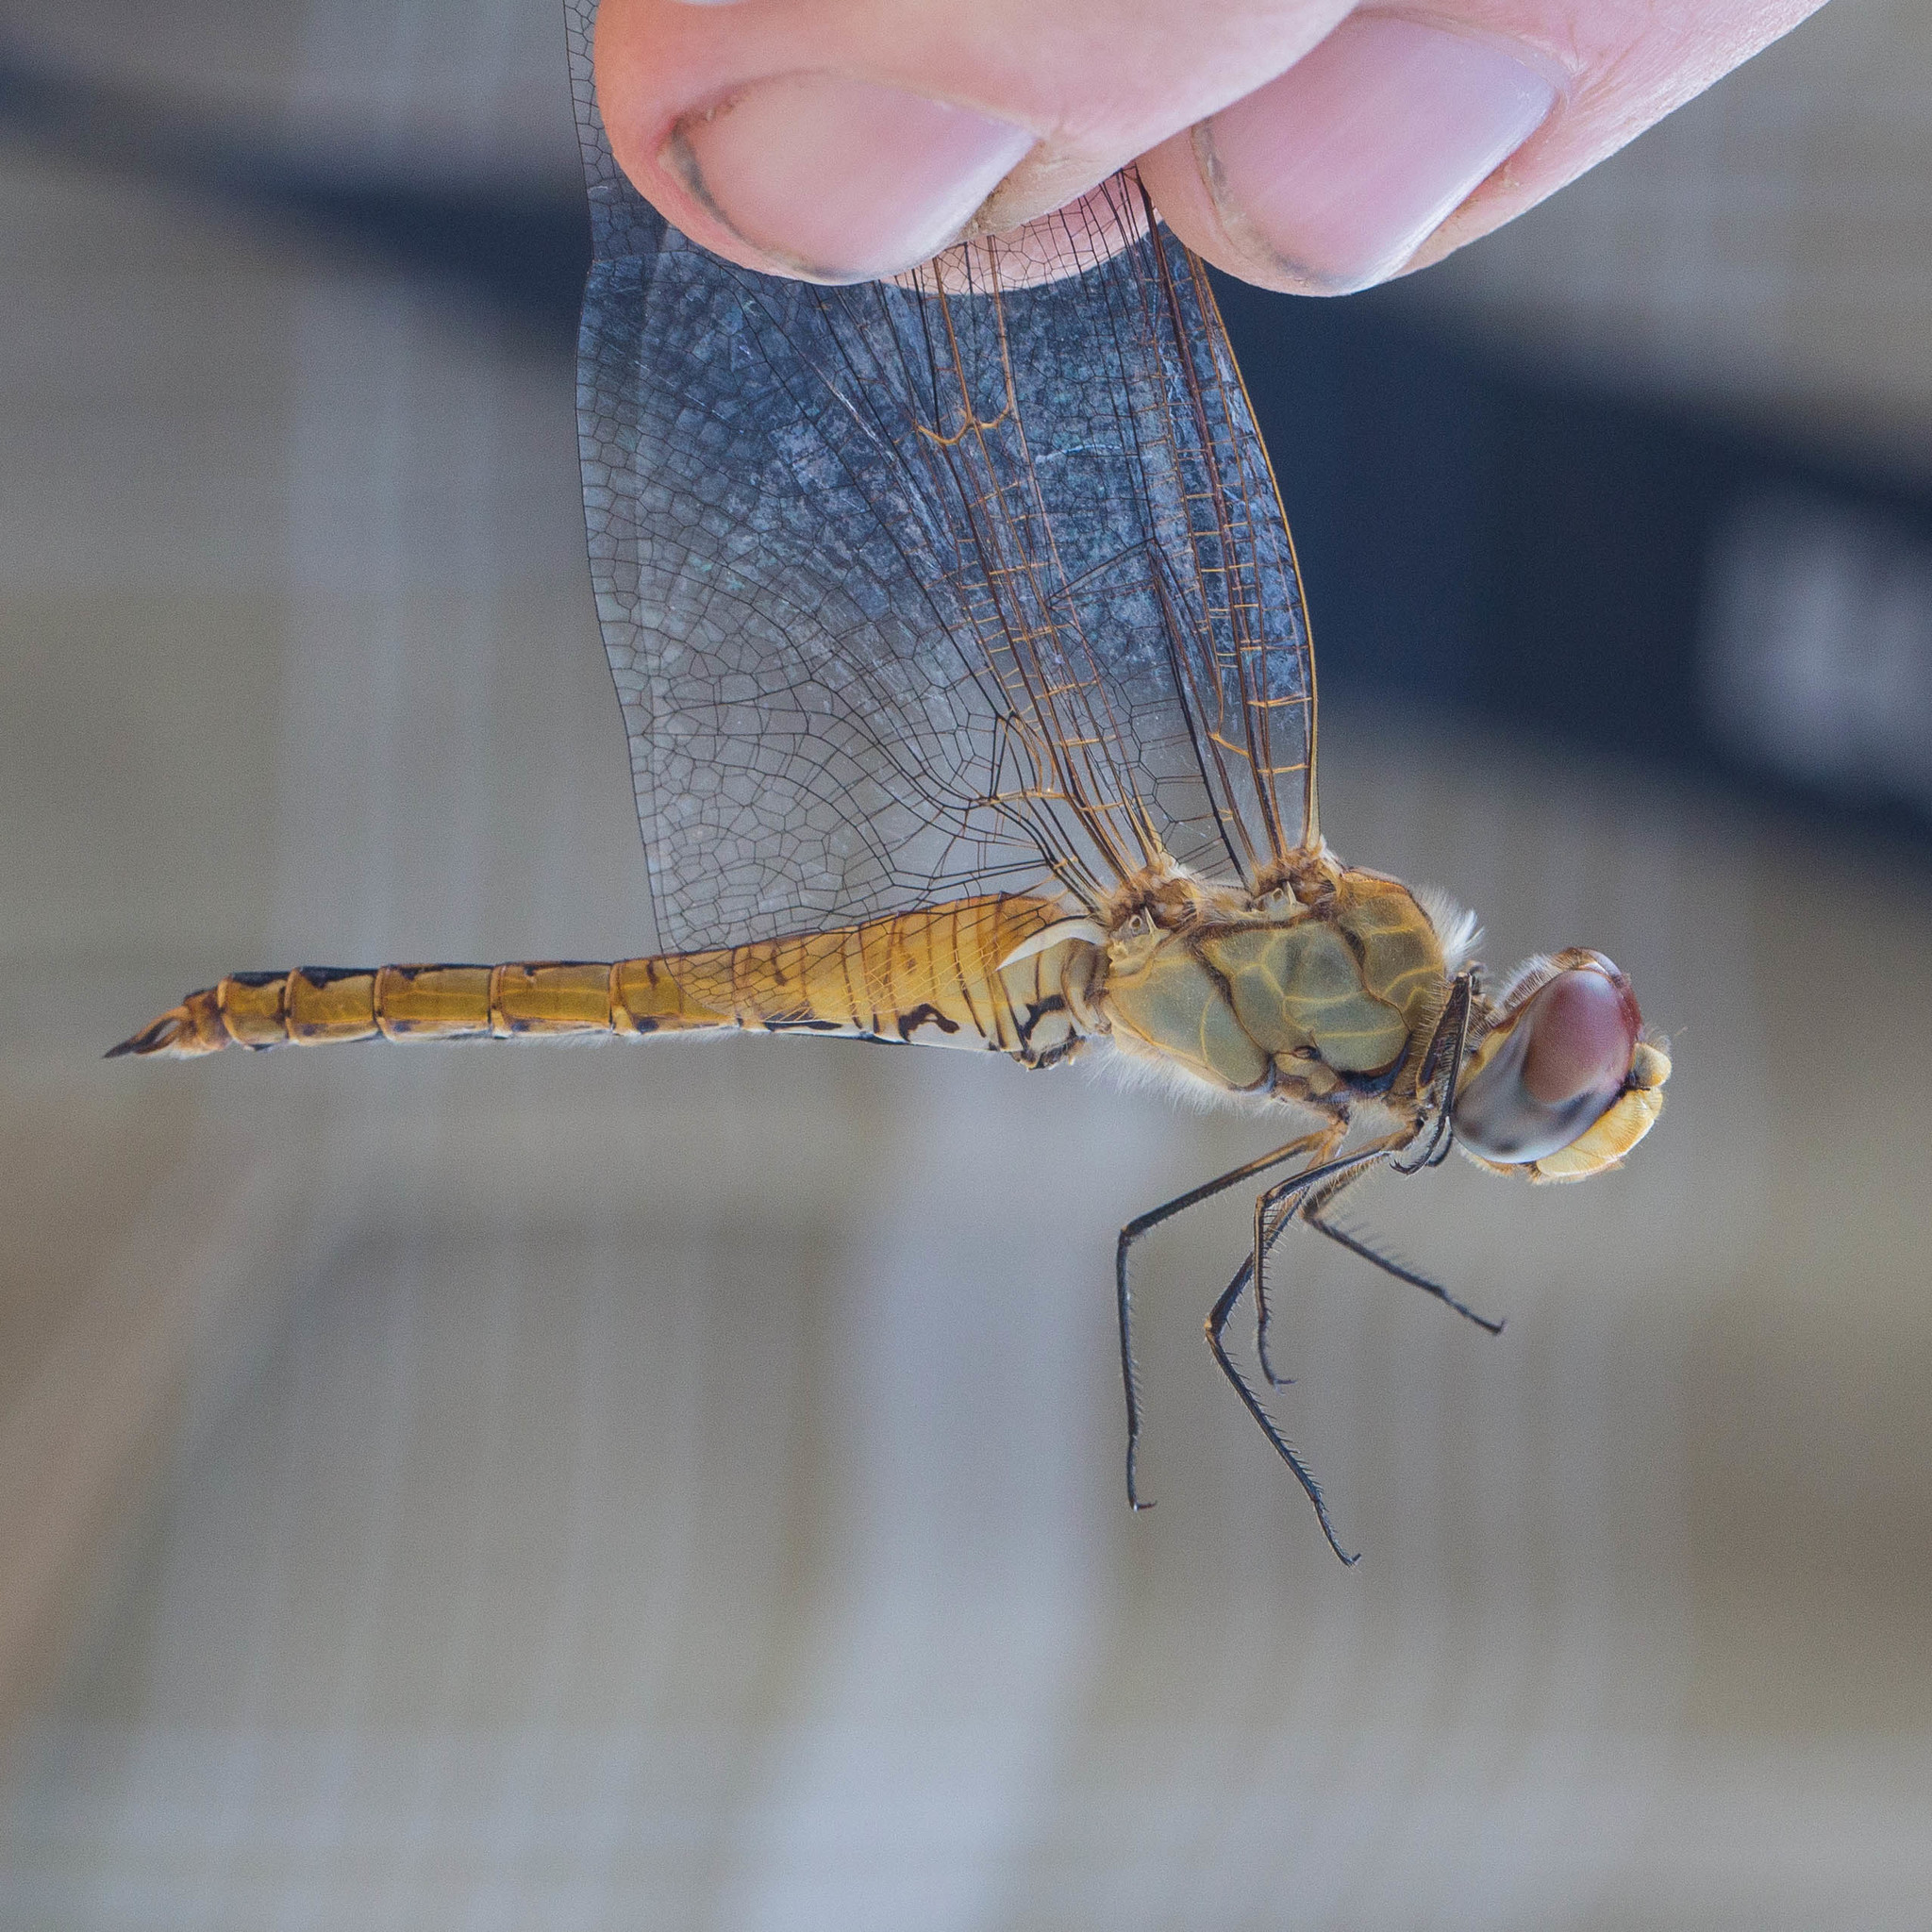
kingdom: Animalia
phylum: Arthropoda
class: Insecta
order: Odonata
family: Libellulidae
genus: Pantala
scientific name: Pantala flavescens
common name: Wandering glider
